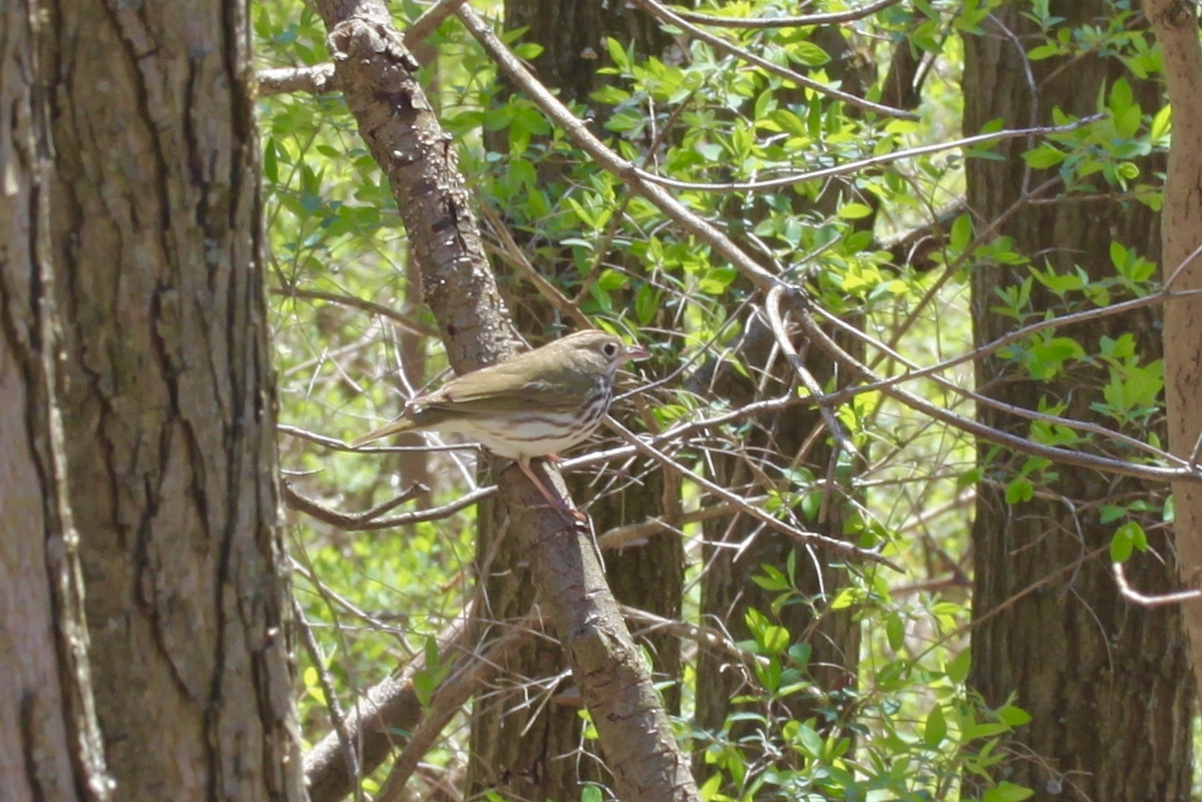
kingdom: Animalia
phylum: Chordata
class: Aves
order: Passeriformes
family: Parulidae
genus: Seiurus
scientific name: Seiurus aurocapilla
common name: Ovenbird
